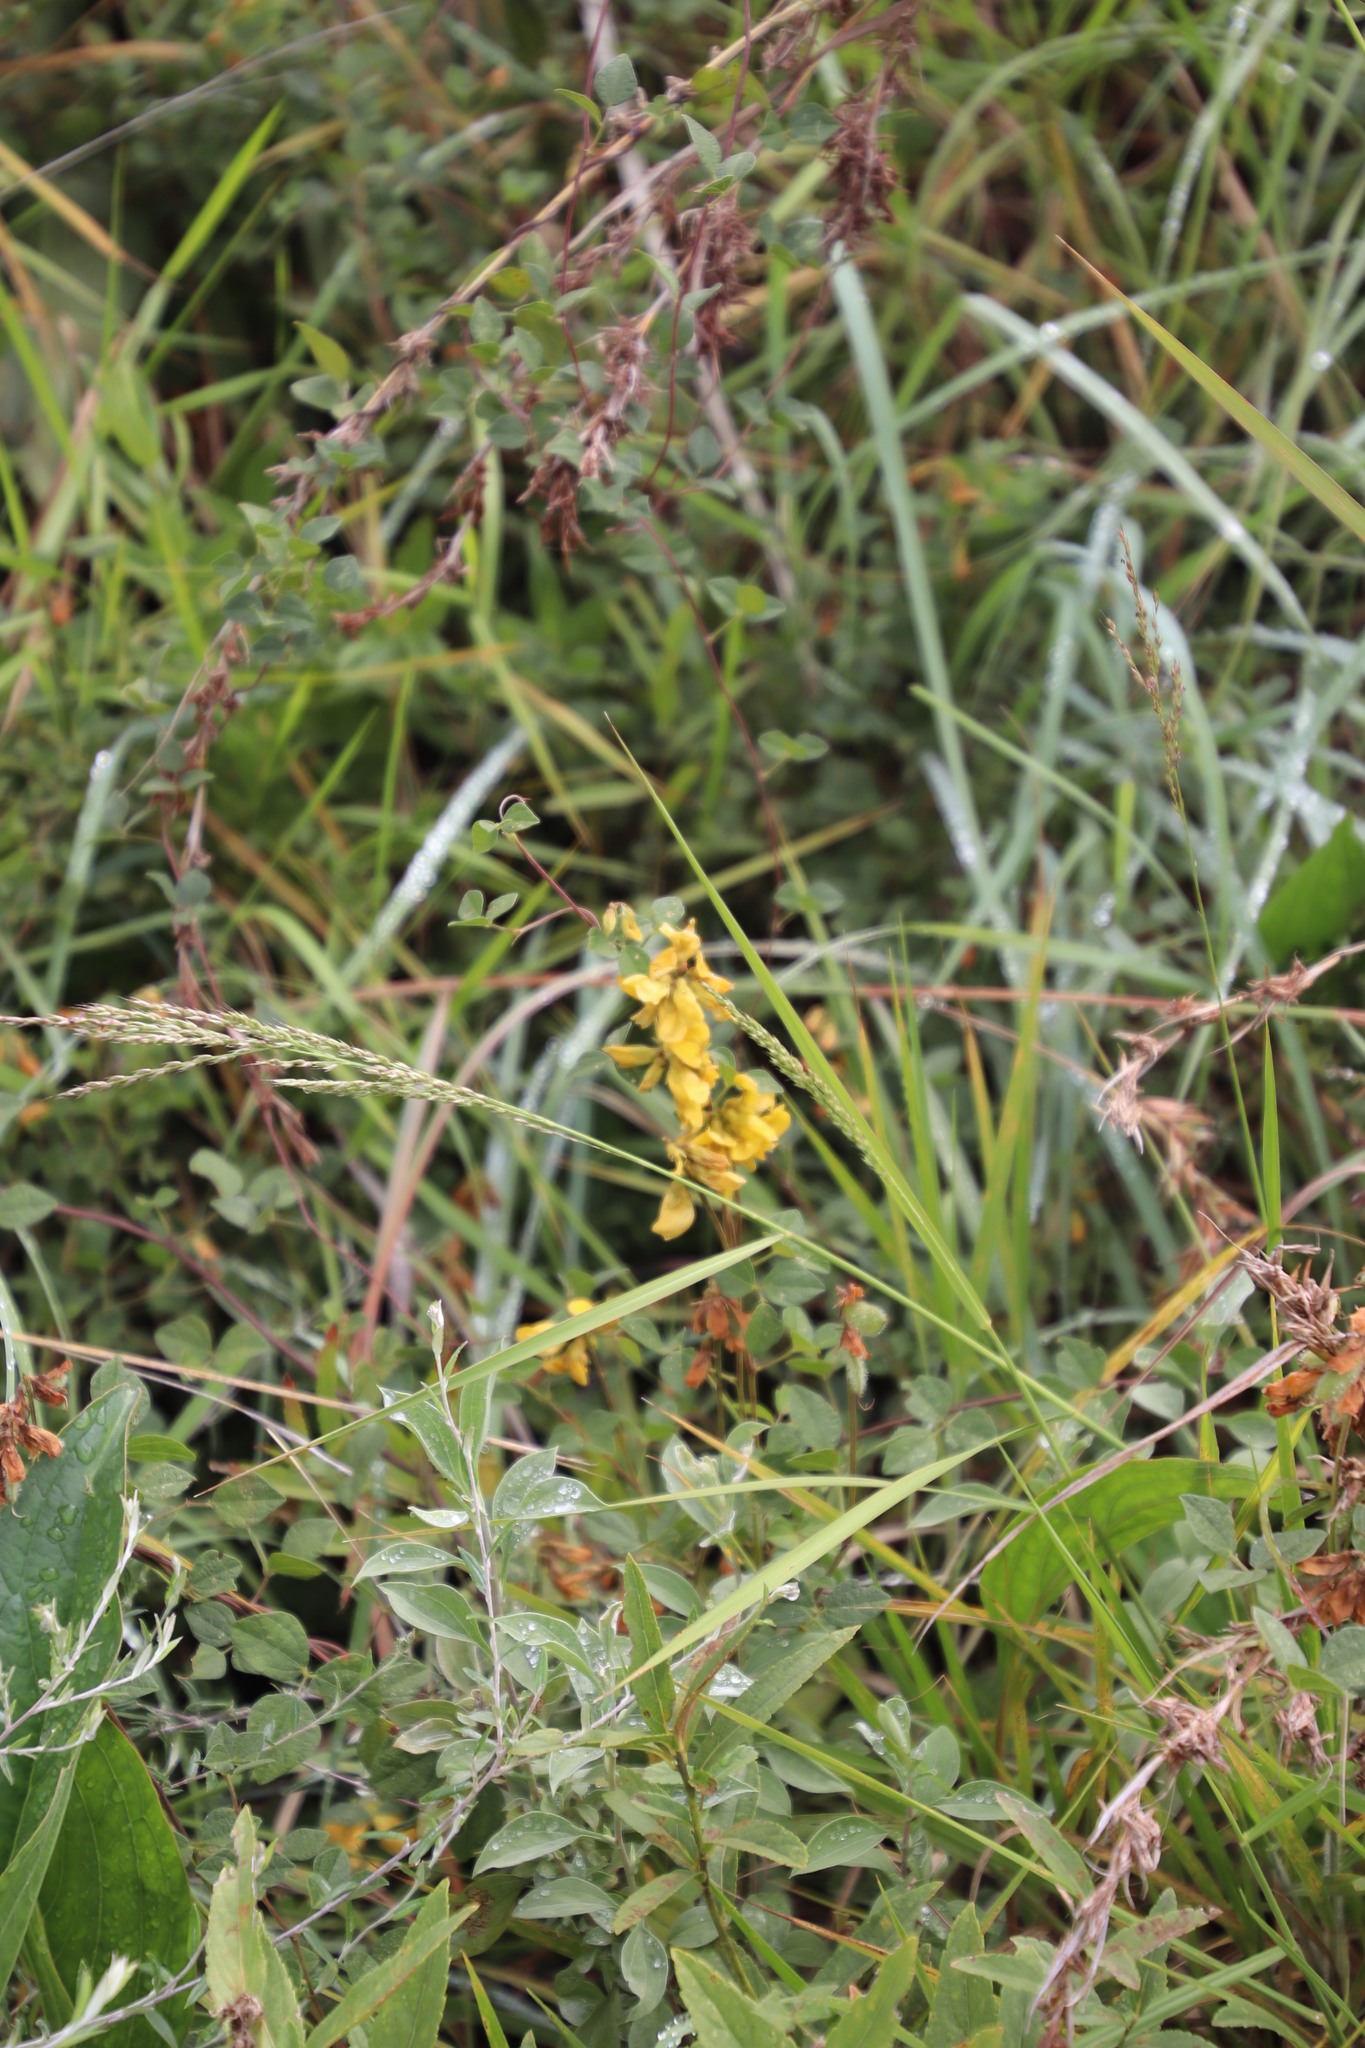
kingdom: Plantae
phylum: Tracheophyta
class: Magnoliopsida
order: Fabales
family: Fabaceae
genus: Rhynchosia
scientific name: Rhynchosia cooperi
